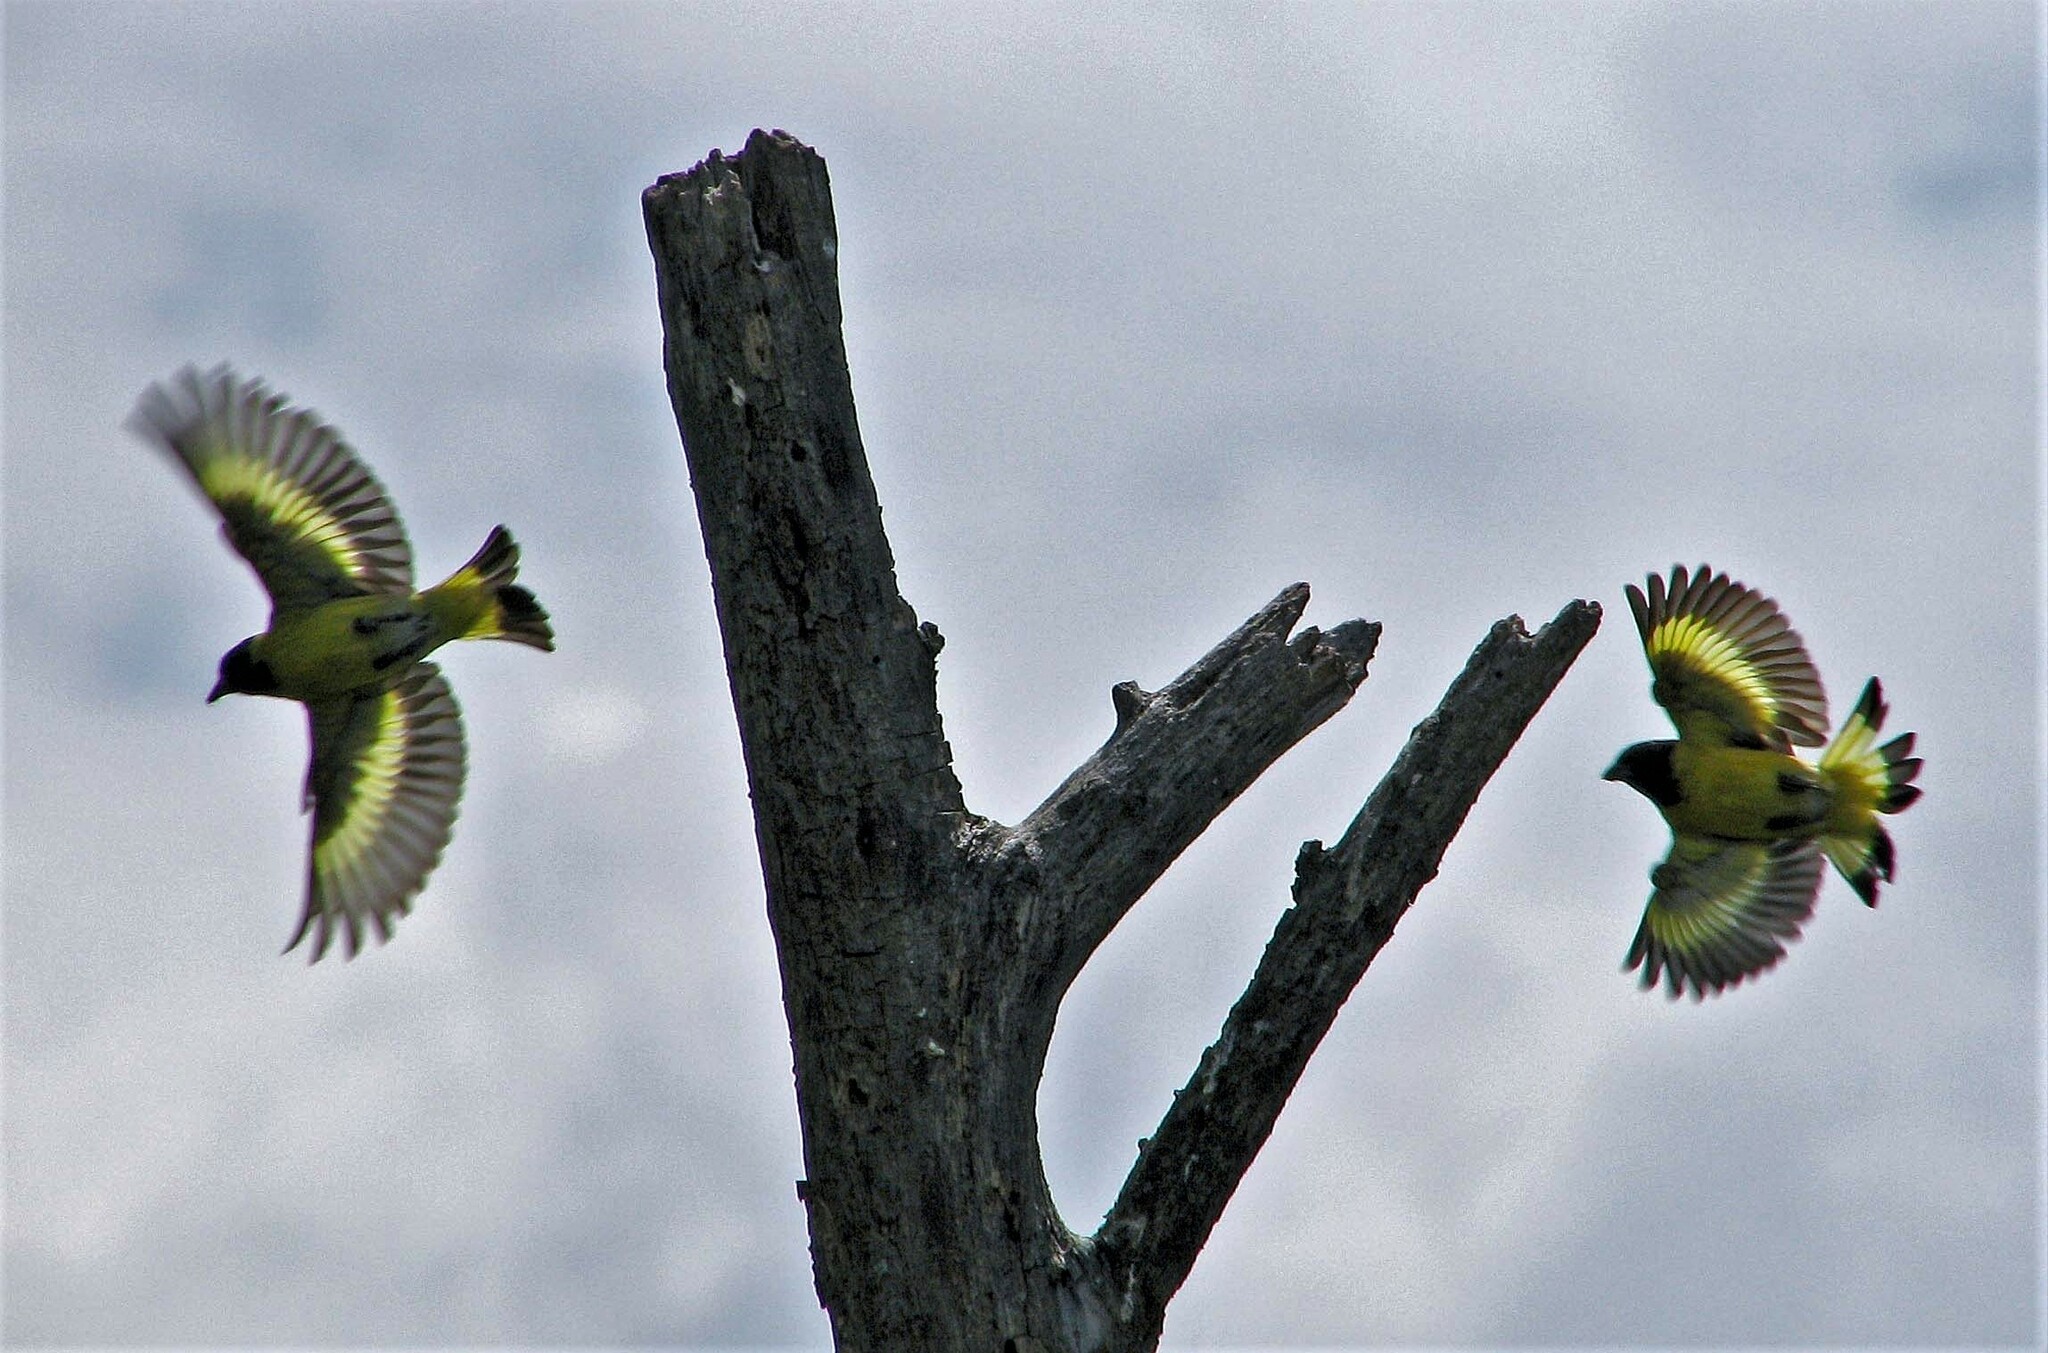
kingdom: Animalia
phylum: Chordata
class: Aves
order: Passeriformes
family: Fringillidae
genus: Spinus
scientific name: Spinus magellanicus
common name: Hooded siskin
